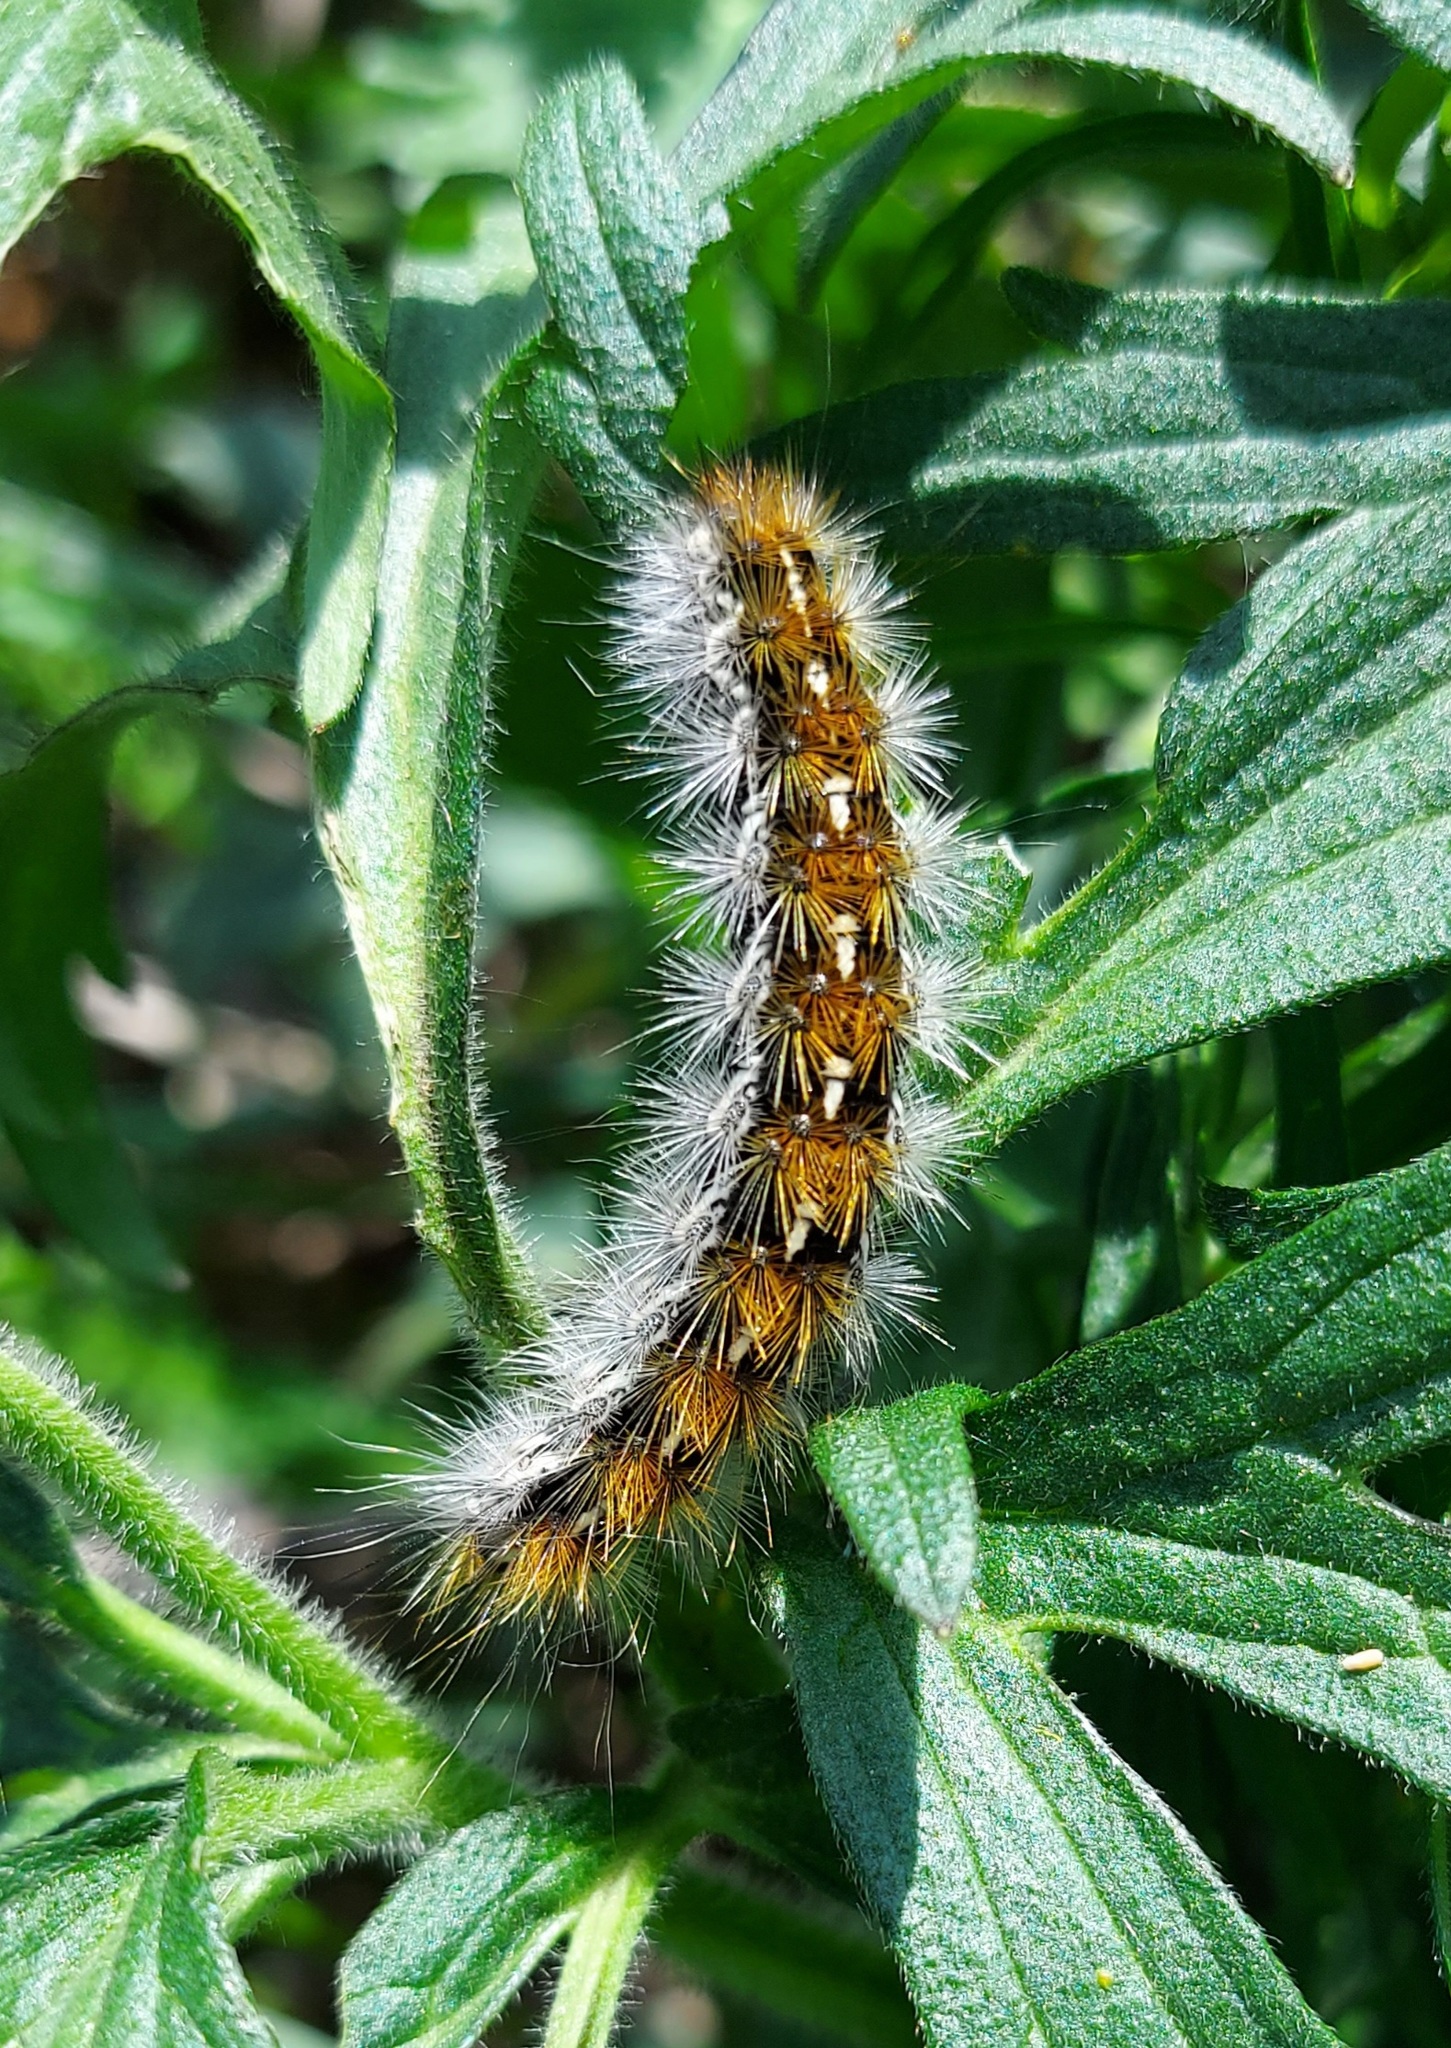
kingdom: Animalia
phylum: Arthropoda
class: Insecta
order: Lepidoptera
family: Erebidae
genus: Rhyparia
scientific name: Rhyparia purpurata
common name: Purple tiger
